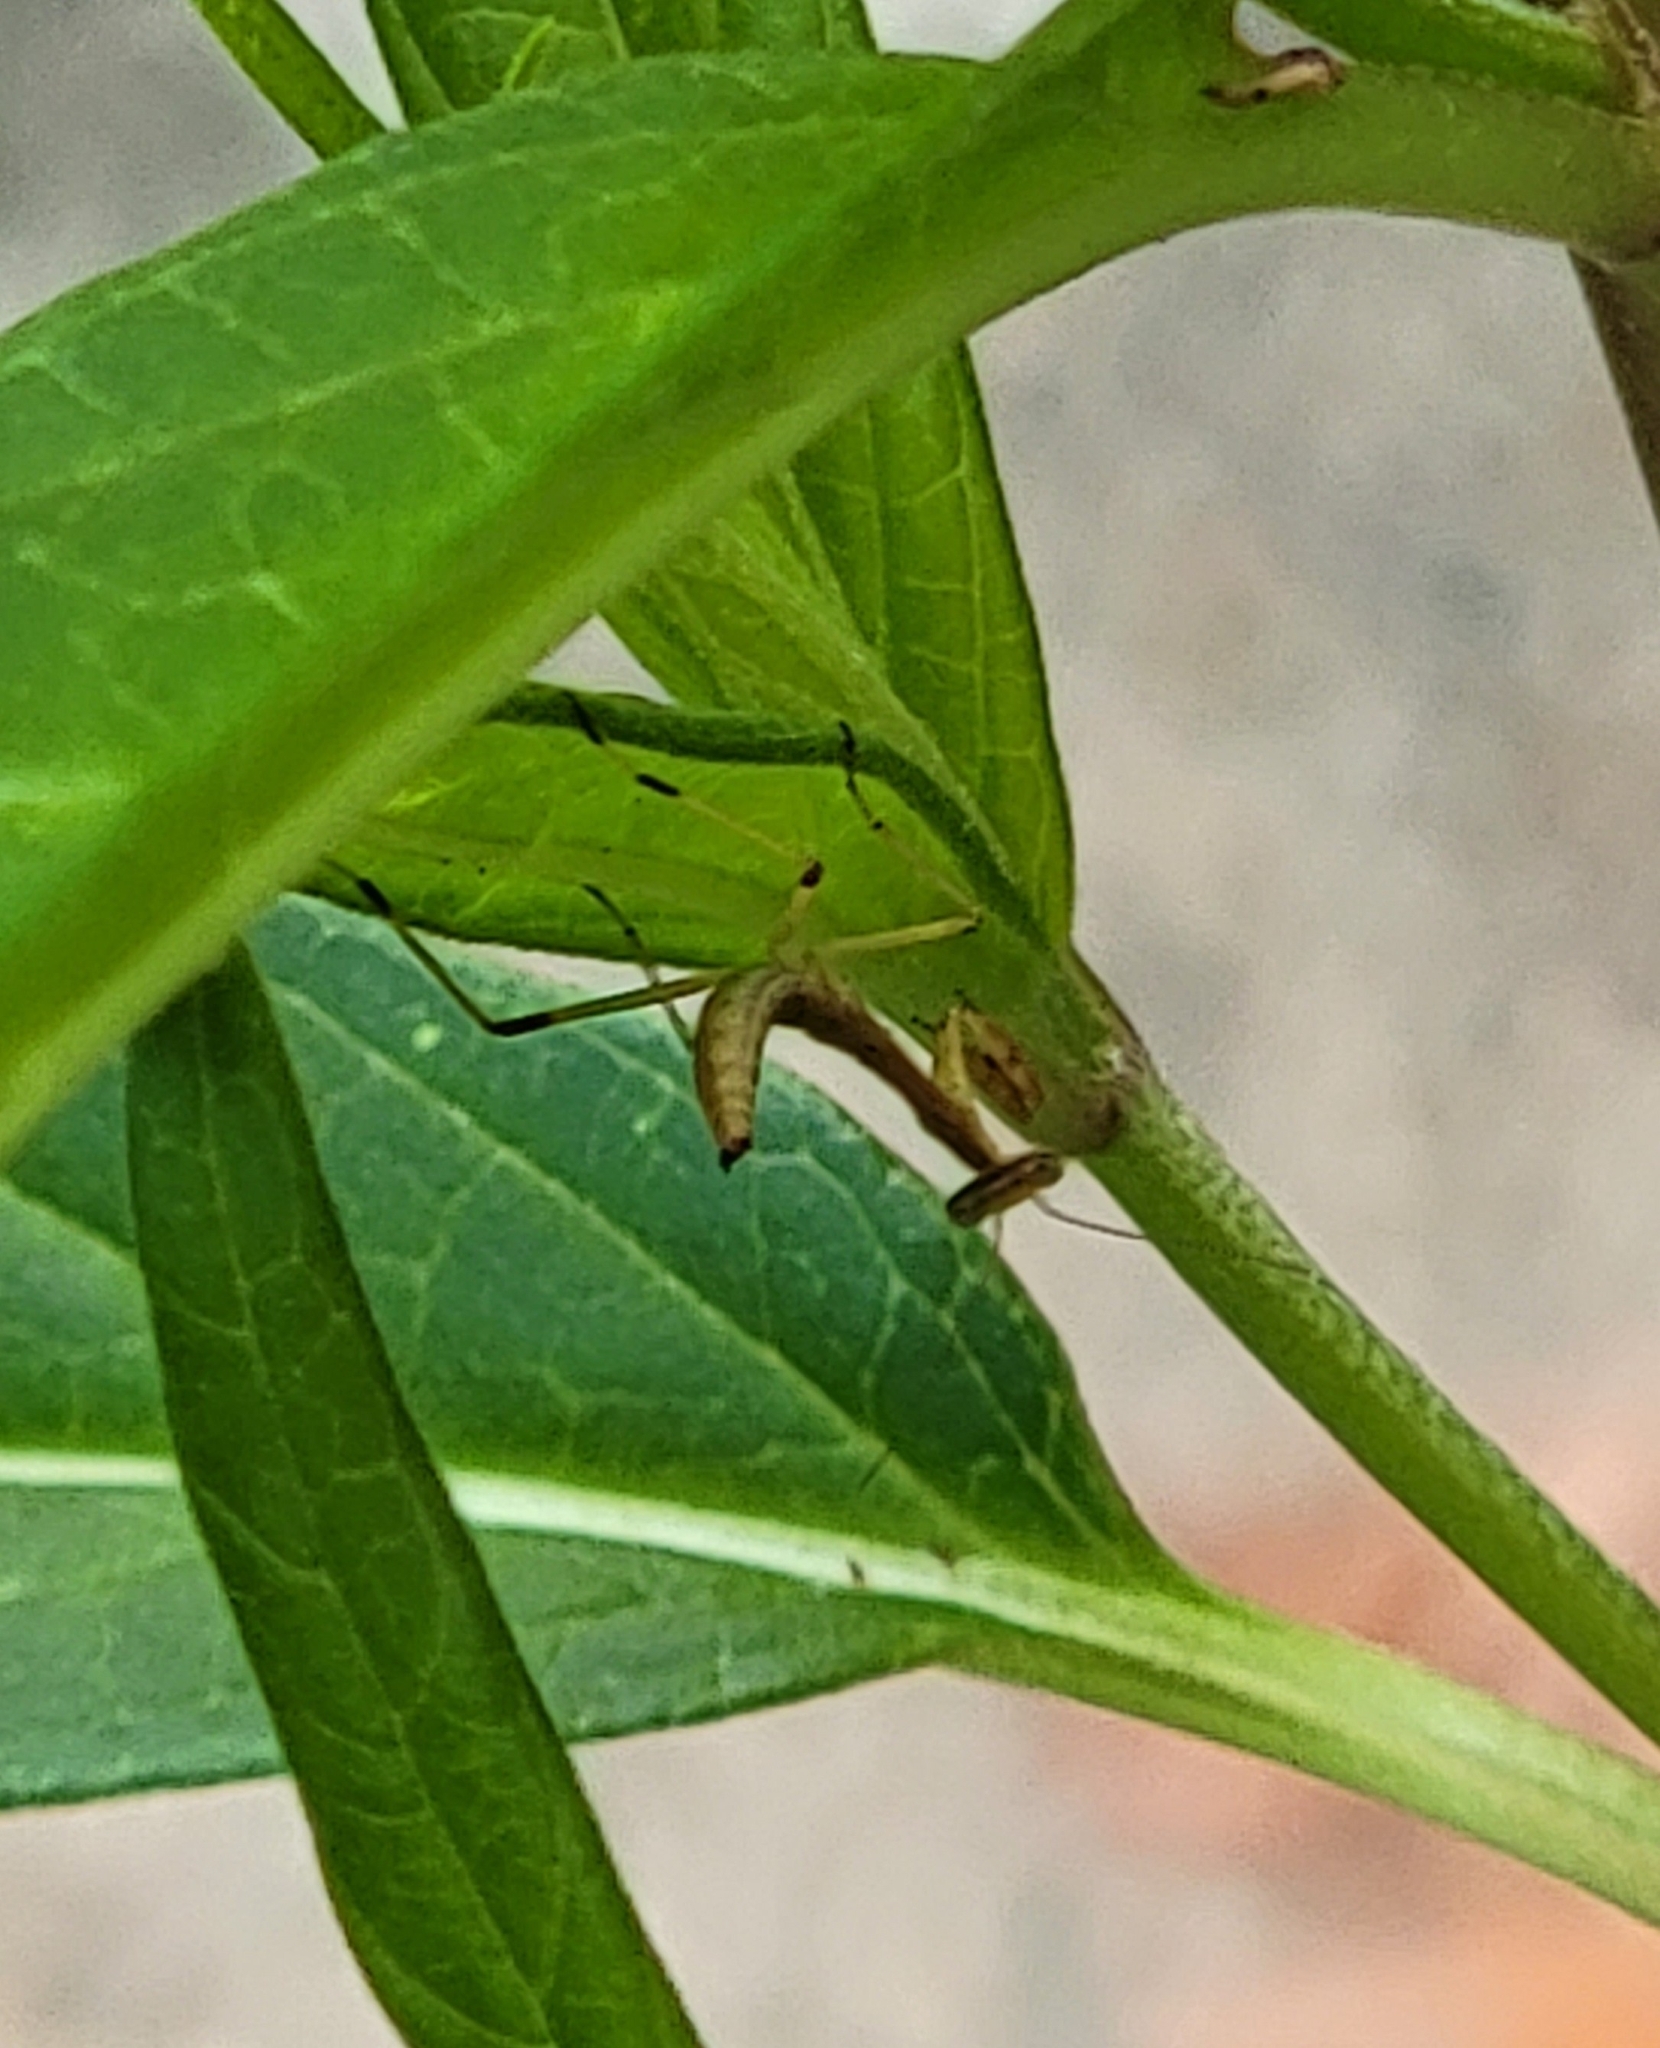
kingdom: Animalia
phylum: Arthropoda
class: Insecta
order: Mantodea
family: Mantidae
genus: Stagmomantis
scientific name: Stagmomantis carolina
